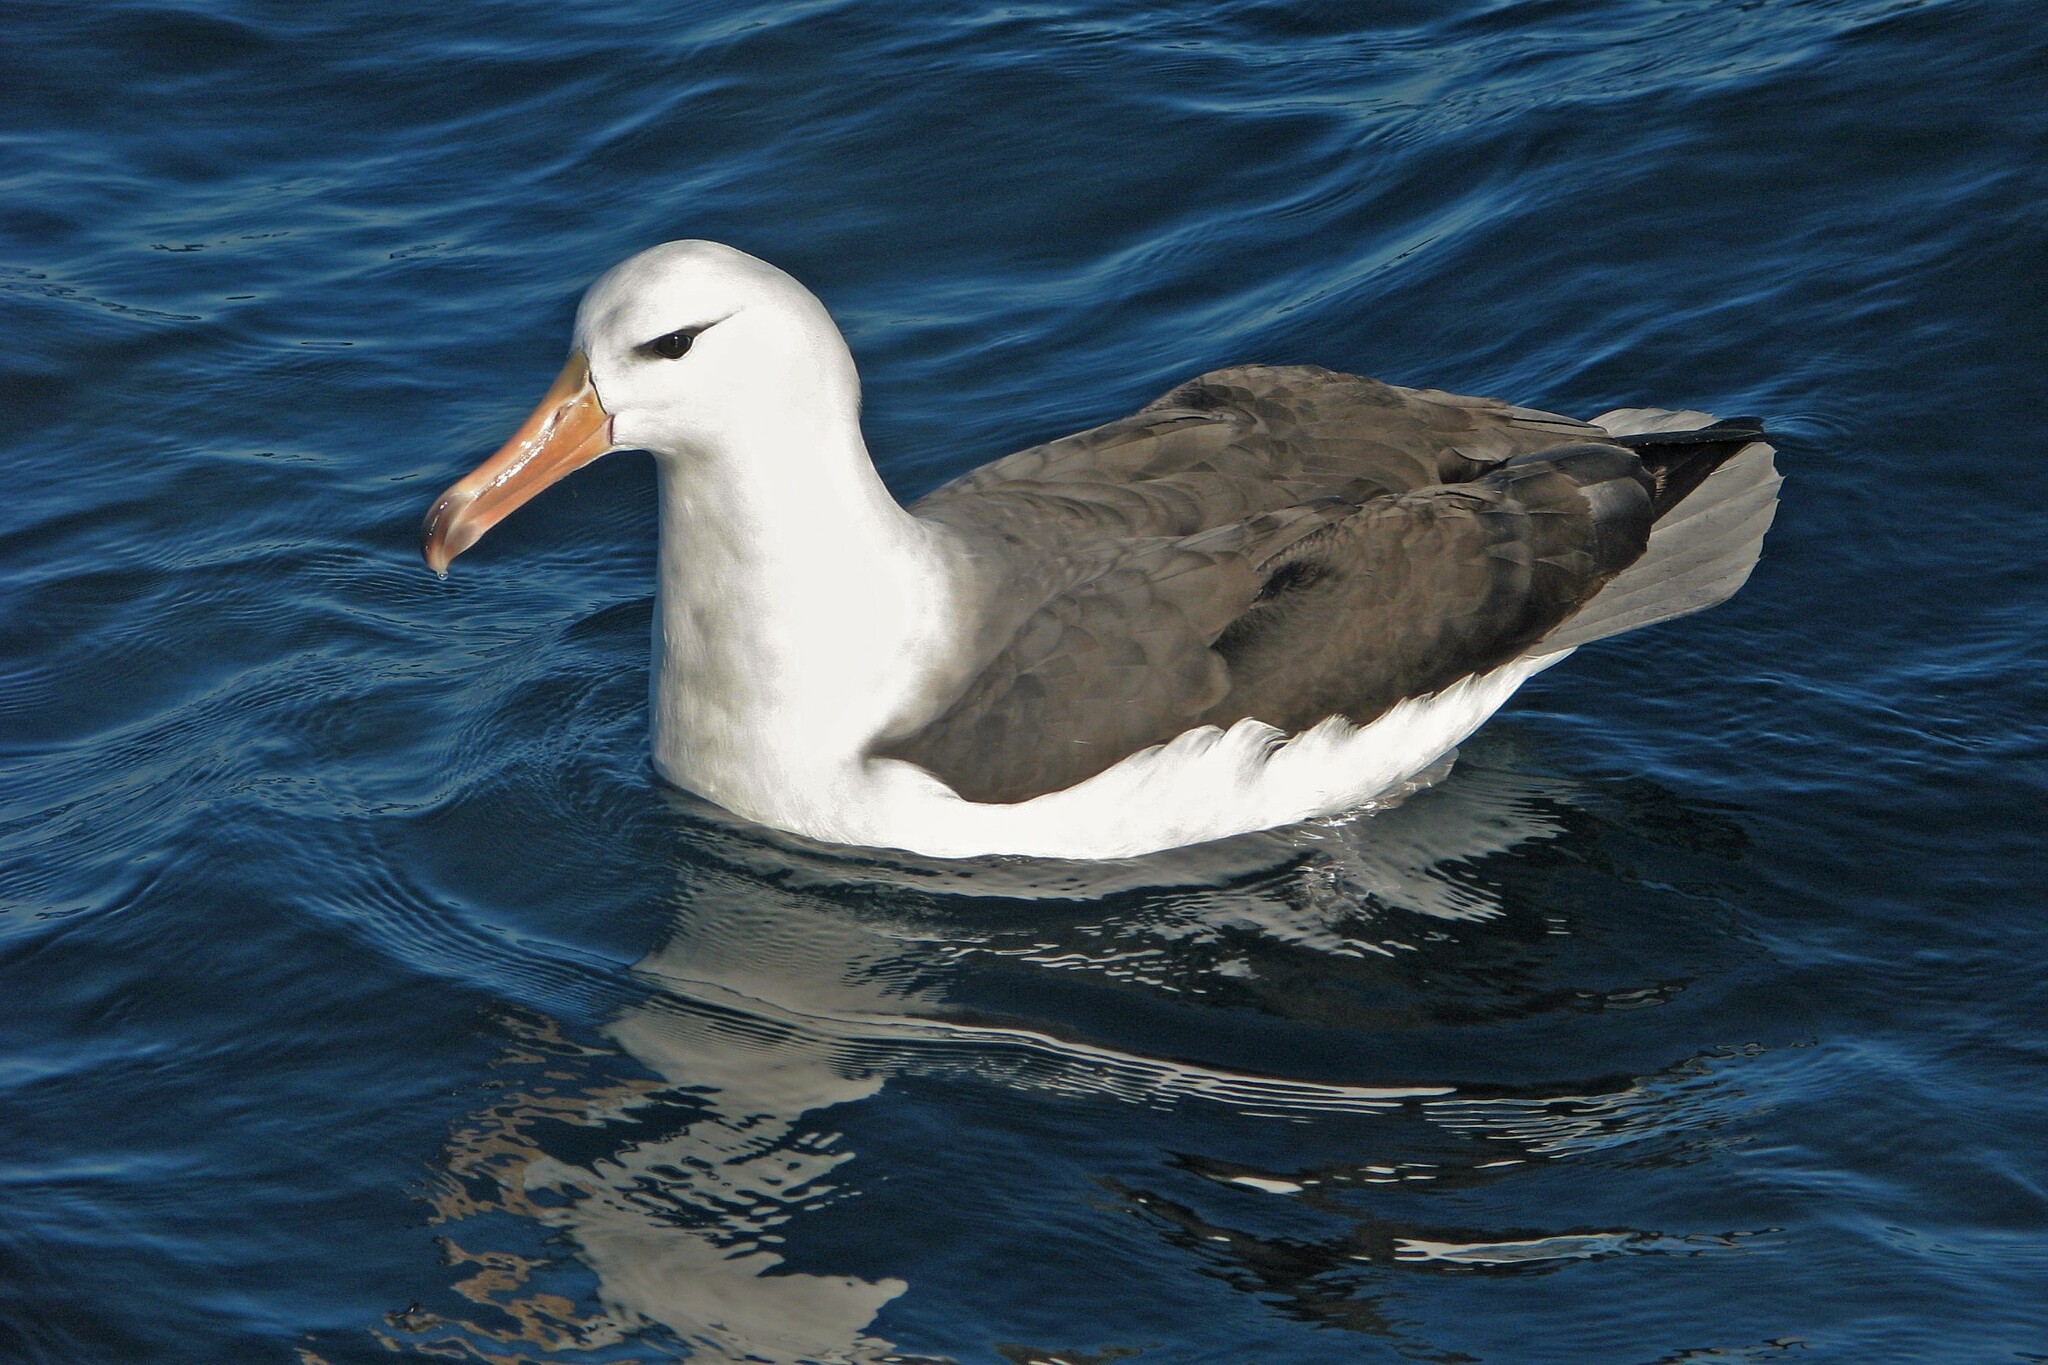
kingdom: Animalia
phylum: Chordata
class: Aves
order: Procellariiformes
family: Diomedeidae
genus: Thalassarche
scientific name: Thalassarche melanophris
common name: Black-browed albatross
